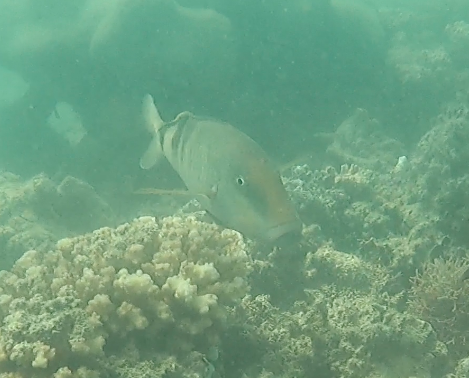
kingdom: Animalia
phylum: Chordata
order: Perciformes
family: Mullidae
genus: Parupeneus
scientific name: Parupeneus multifasciatus
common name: Manybar goatfish
